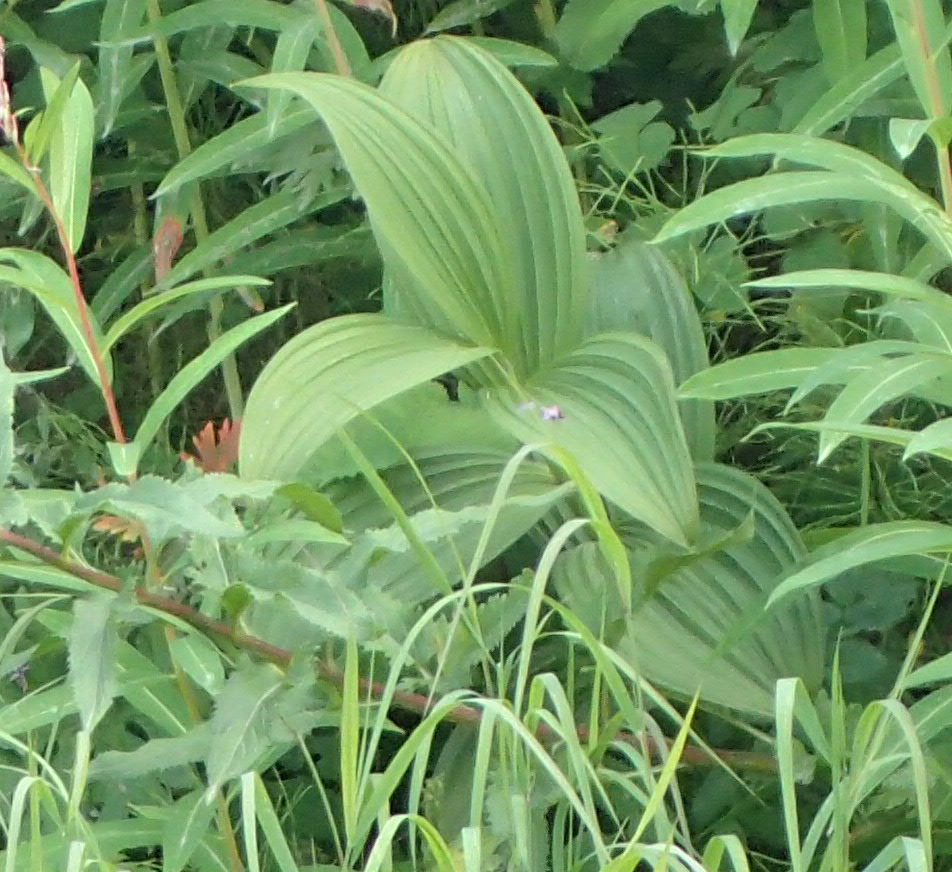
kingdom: Plantae
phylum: Tracheophyta
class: Liliopsida
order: Liliales
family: Melanthiaceae
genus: Veratrum
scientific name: Veratrum viride
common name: American false hellebore
